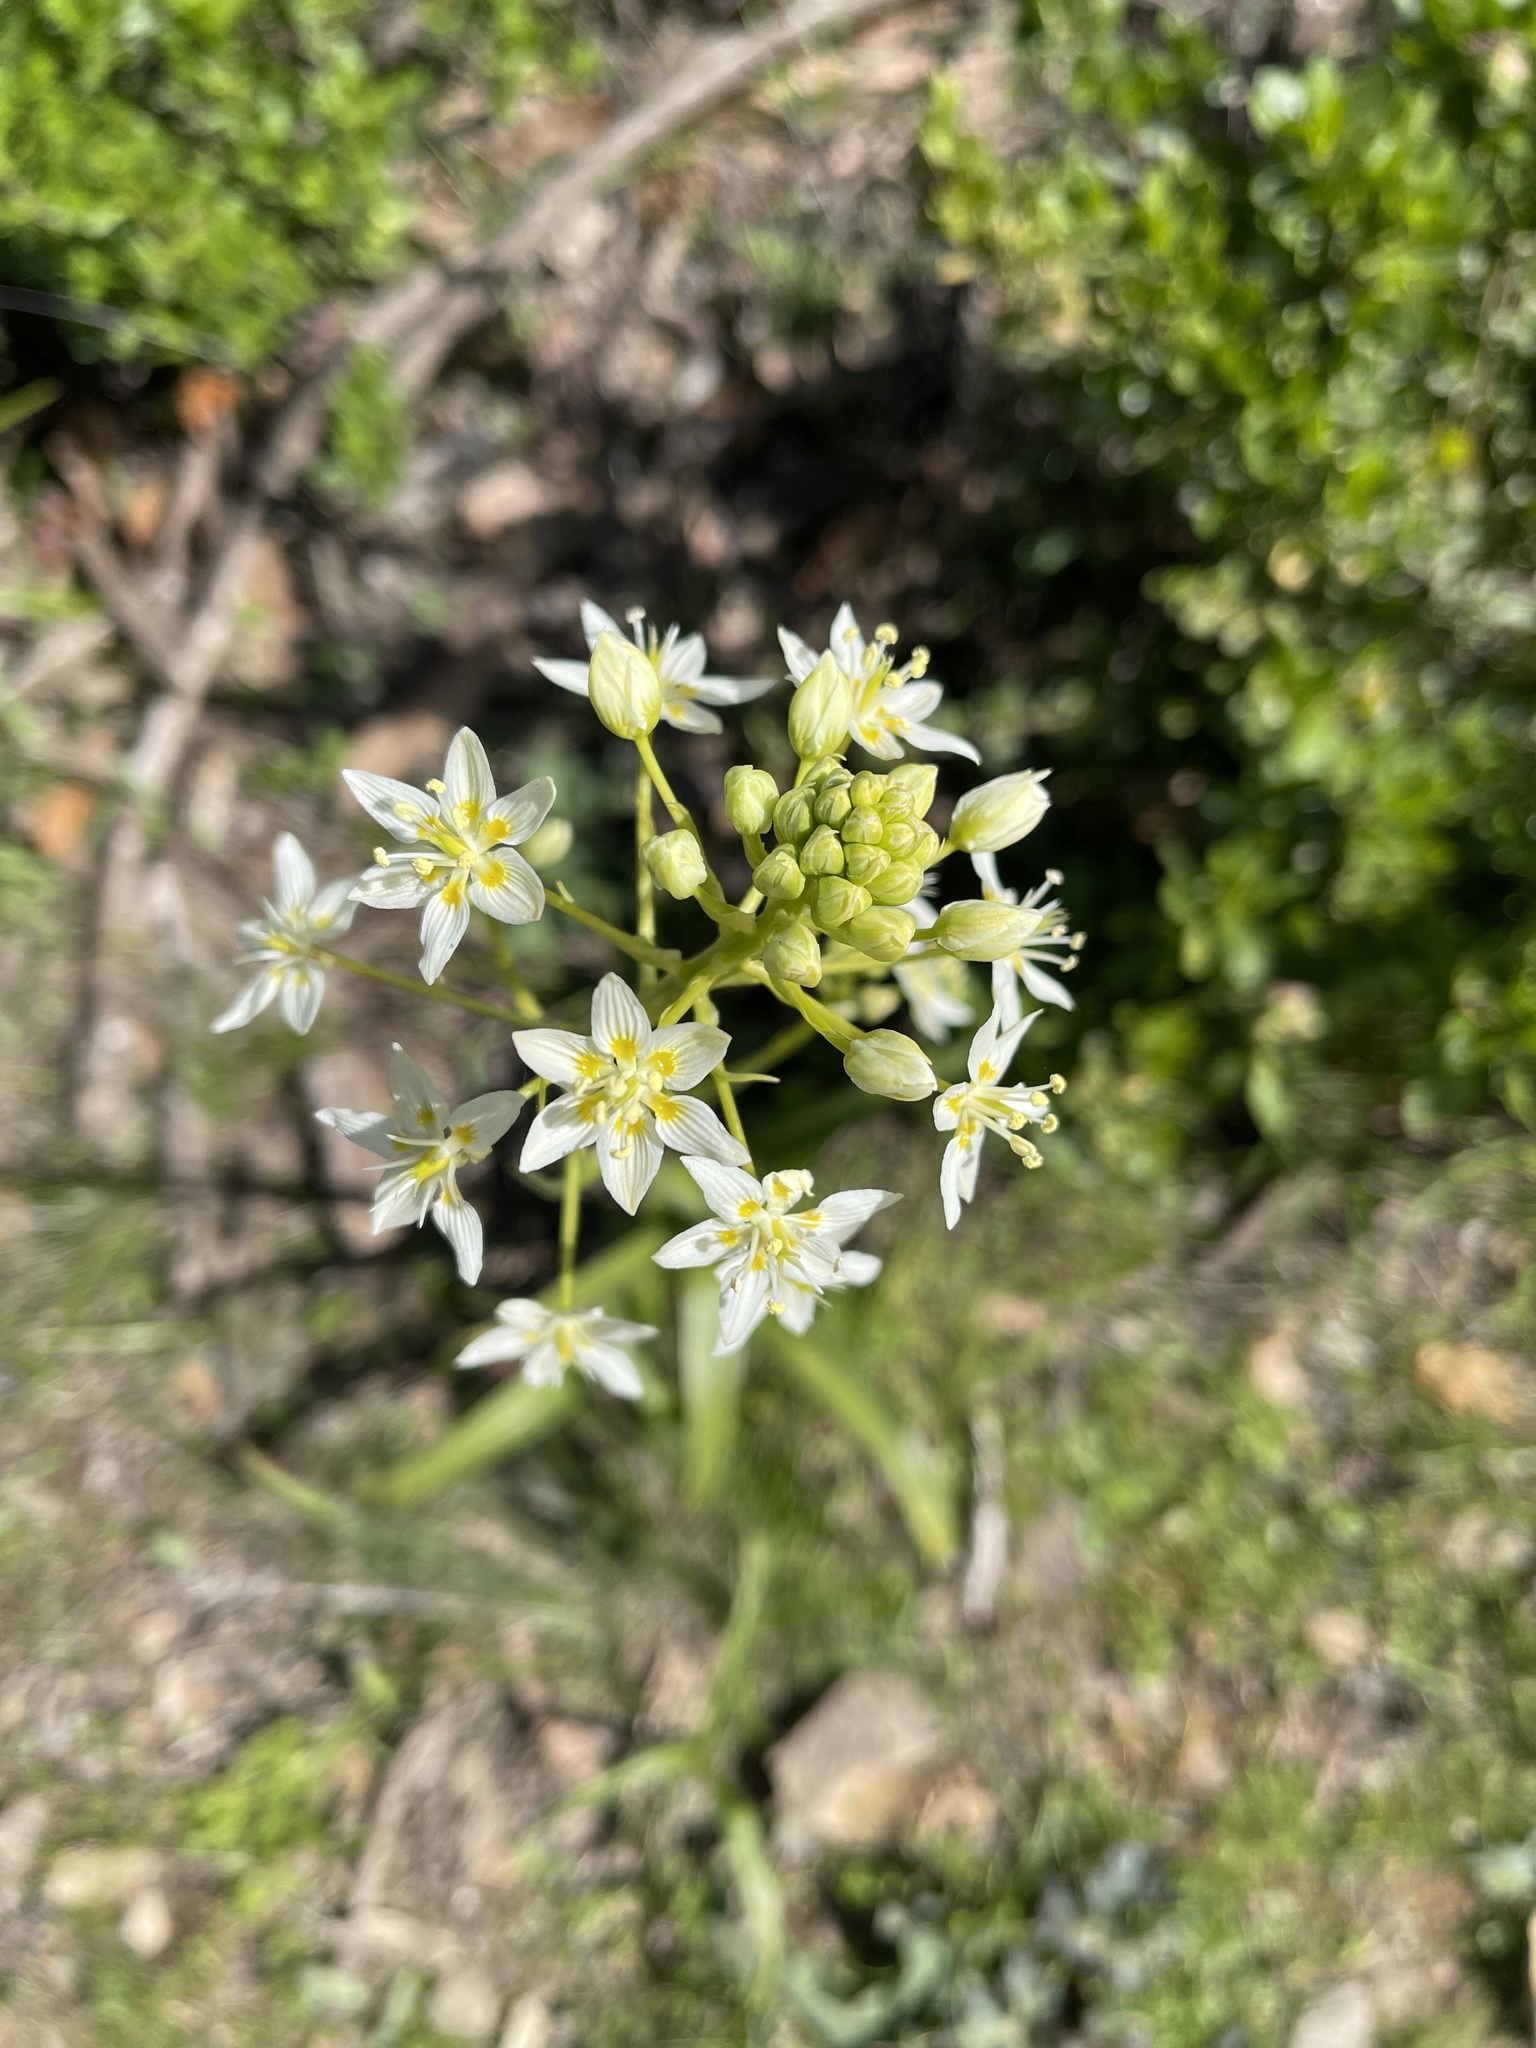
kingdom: Plantae
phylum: Tracheophyta
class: Liliopsida
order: Liliales
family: Melanthiaceae
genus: Toxicoscordion
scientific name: Toxicoscordion fremontii
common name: Fremont's death camas
